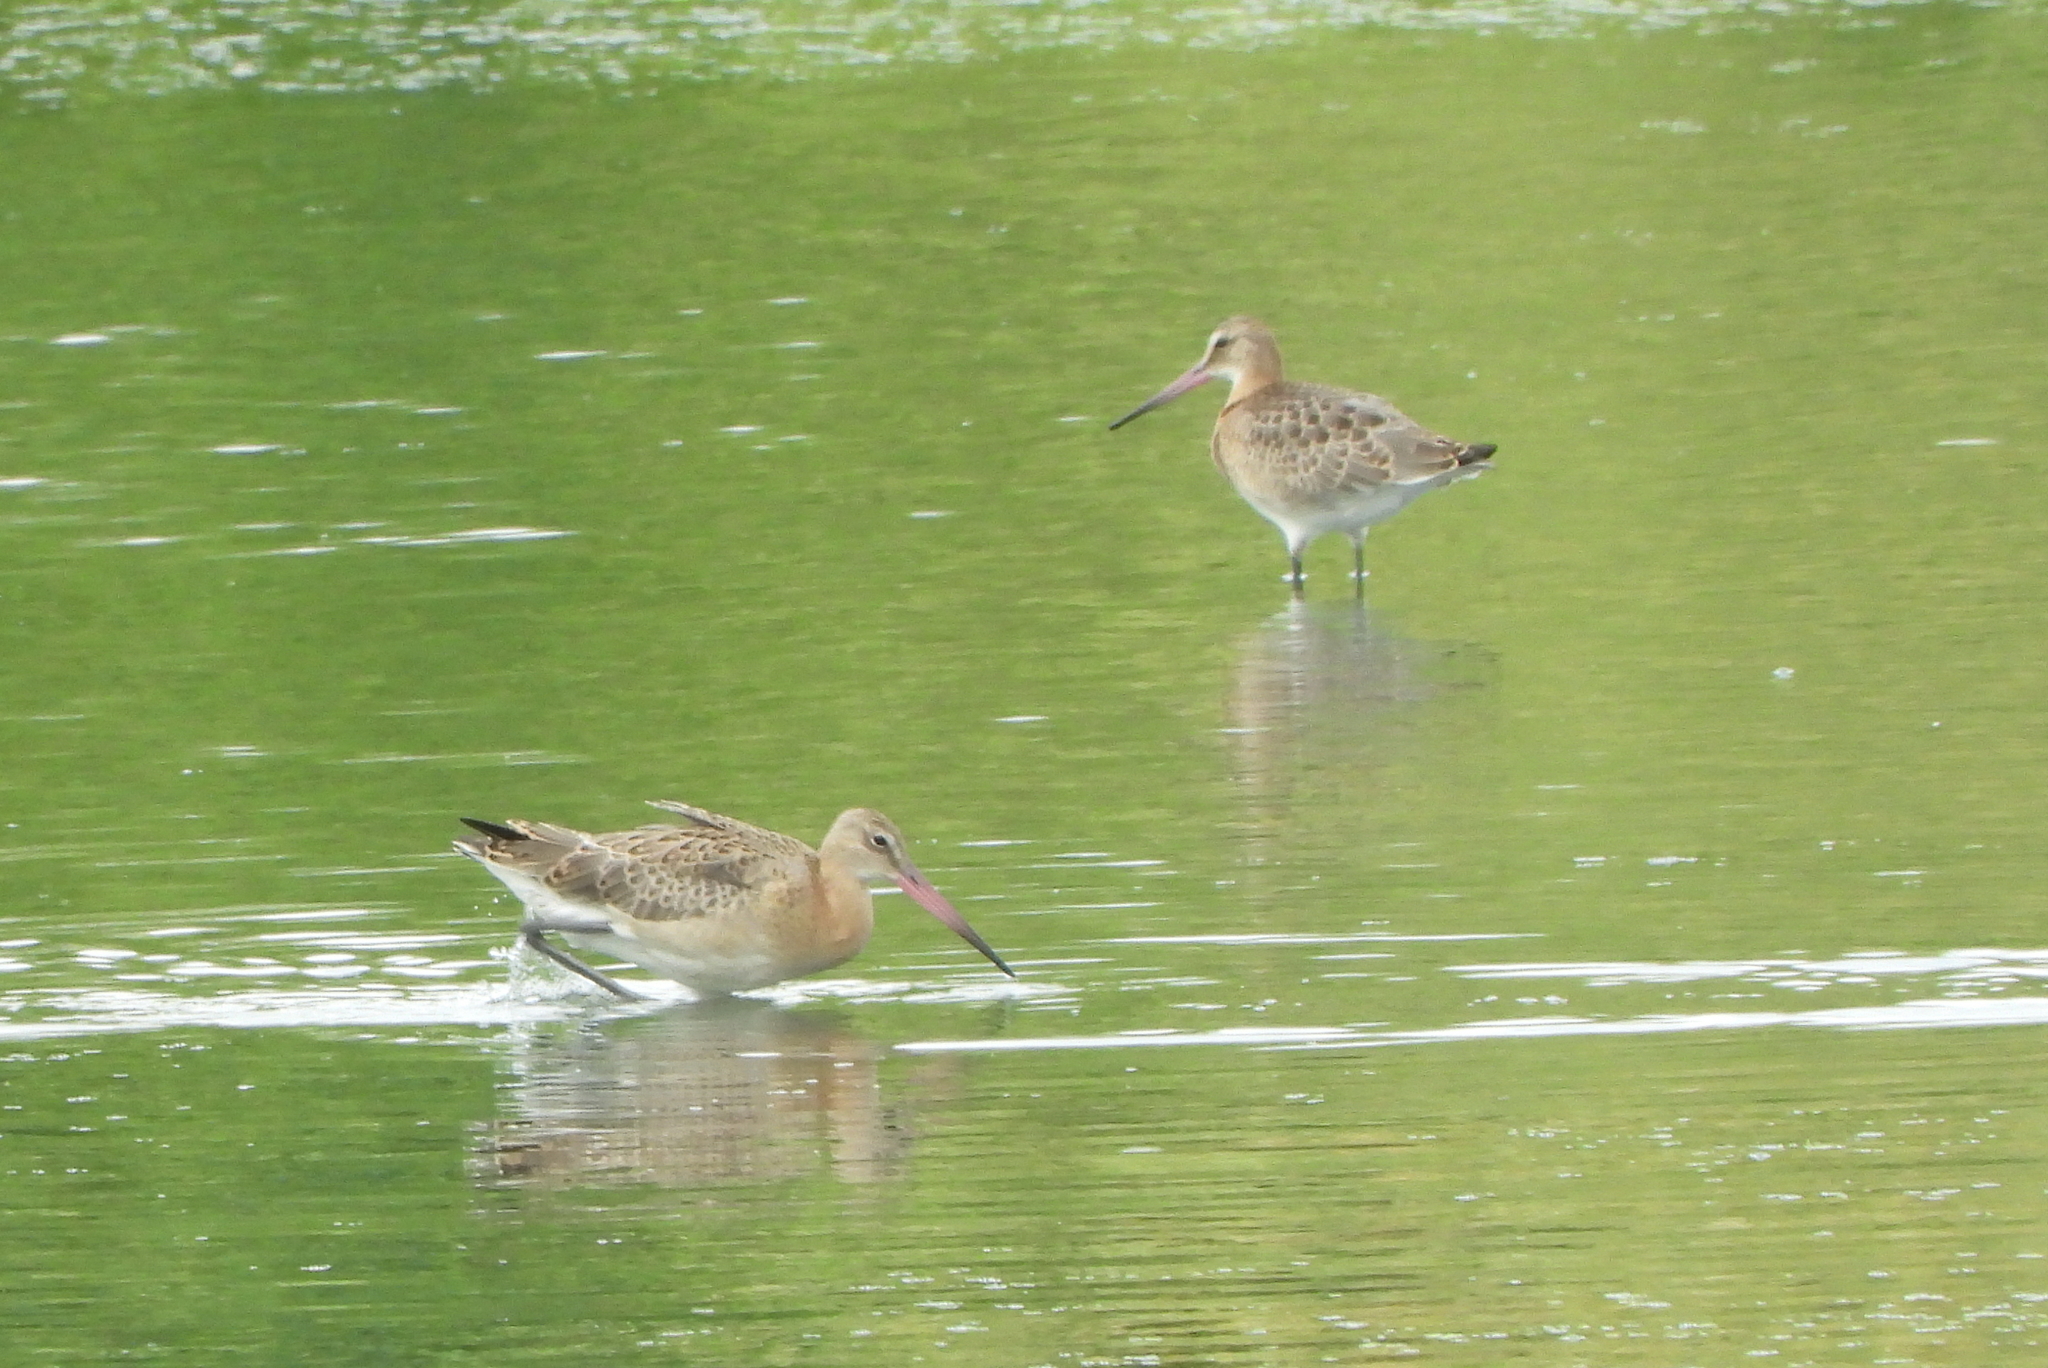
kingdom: Animalia
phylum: Chordata
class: Aves
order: Charadriiformes
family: Scolopacidae
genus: Limosa
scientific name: Limosa limosa
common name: Black-tailed godwit
